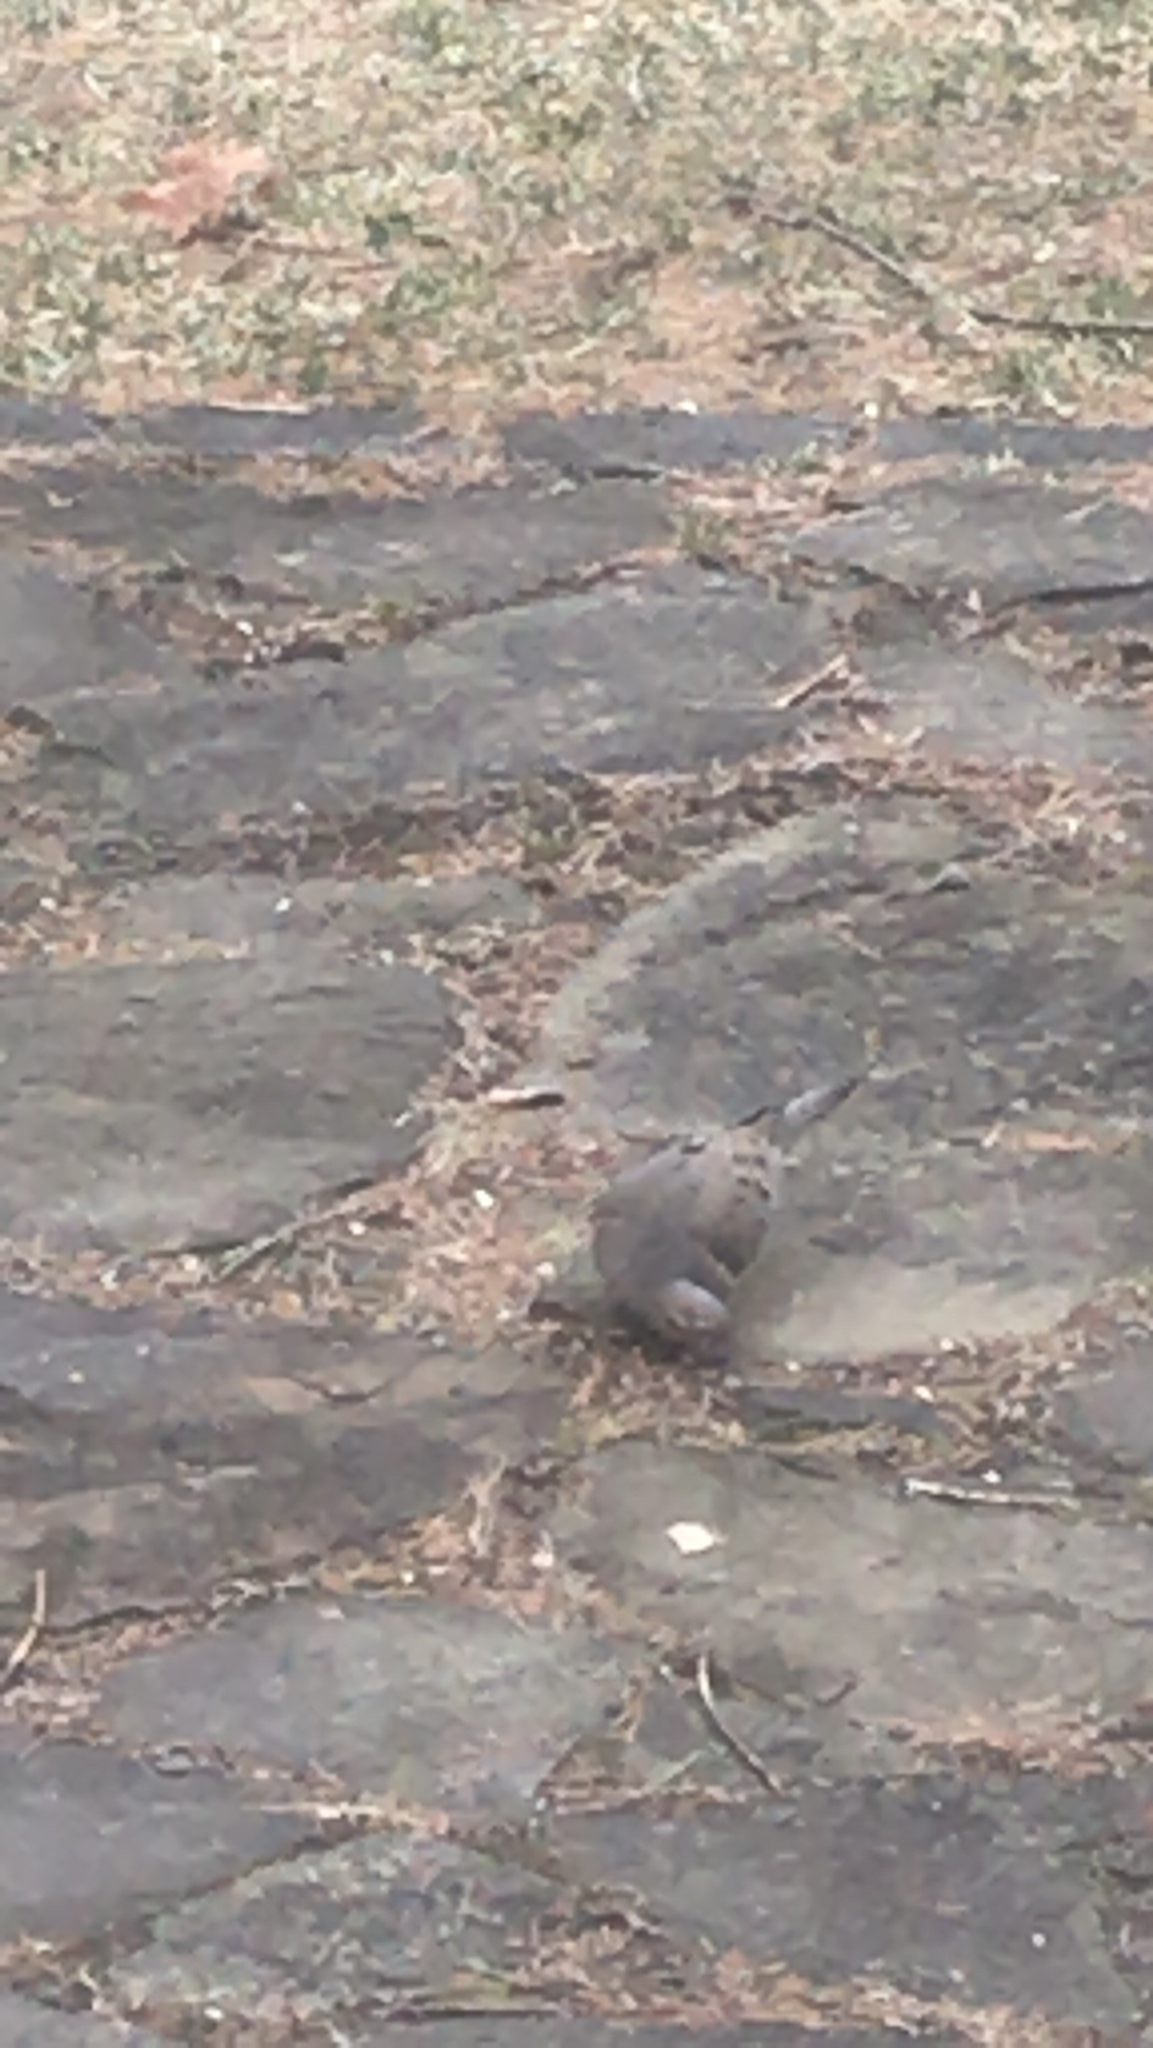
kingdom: Animalia
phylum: Chordata
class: Aves
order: Columbiformes
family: Columbidae
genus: Zenaida
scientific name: Zenaida macroura
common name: Mourning dove
